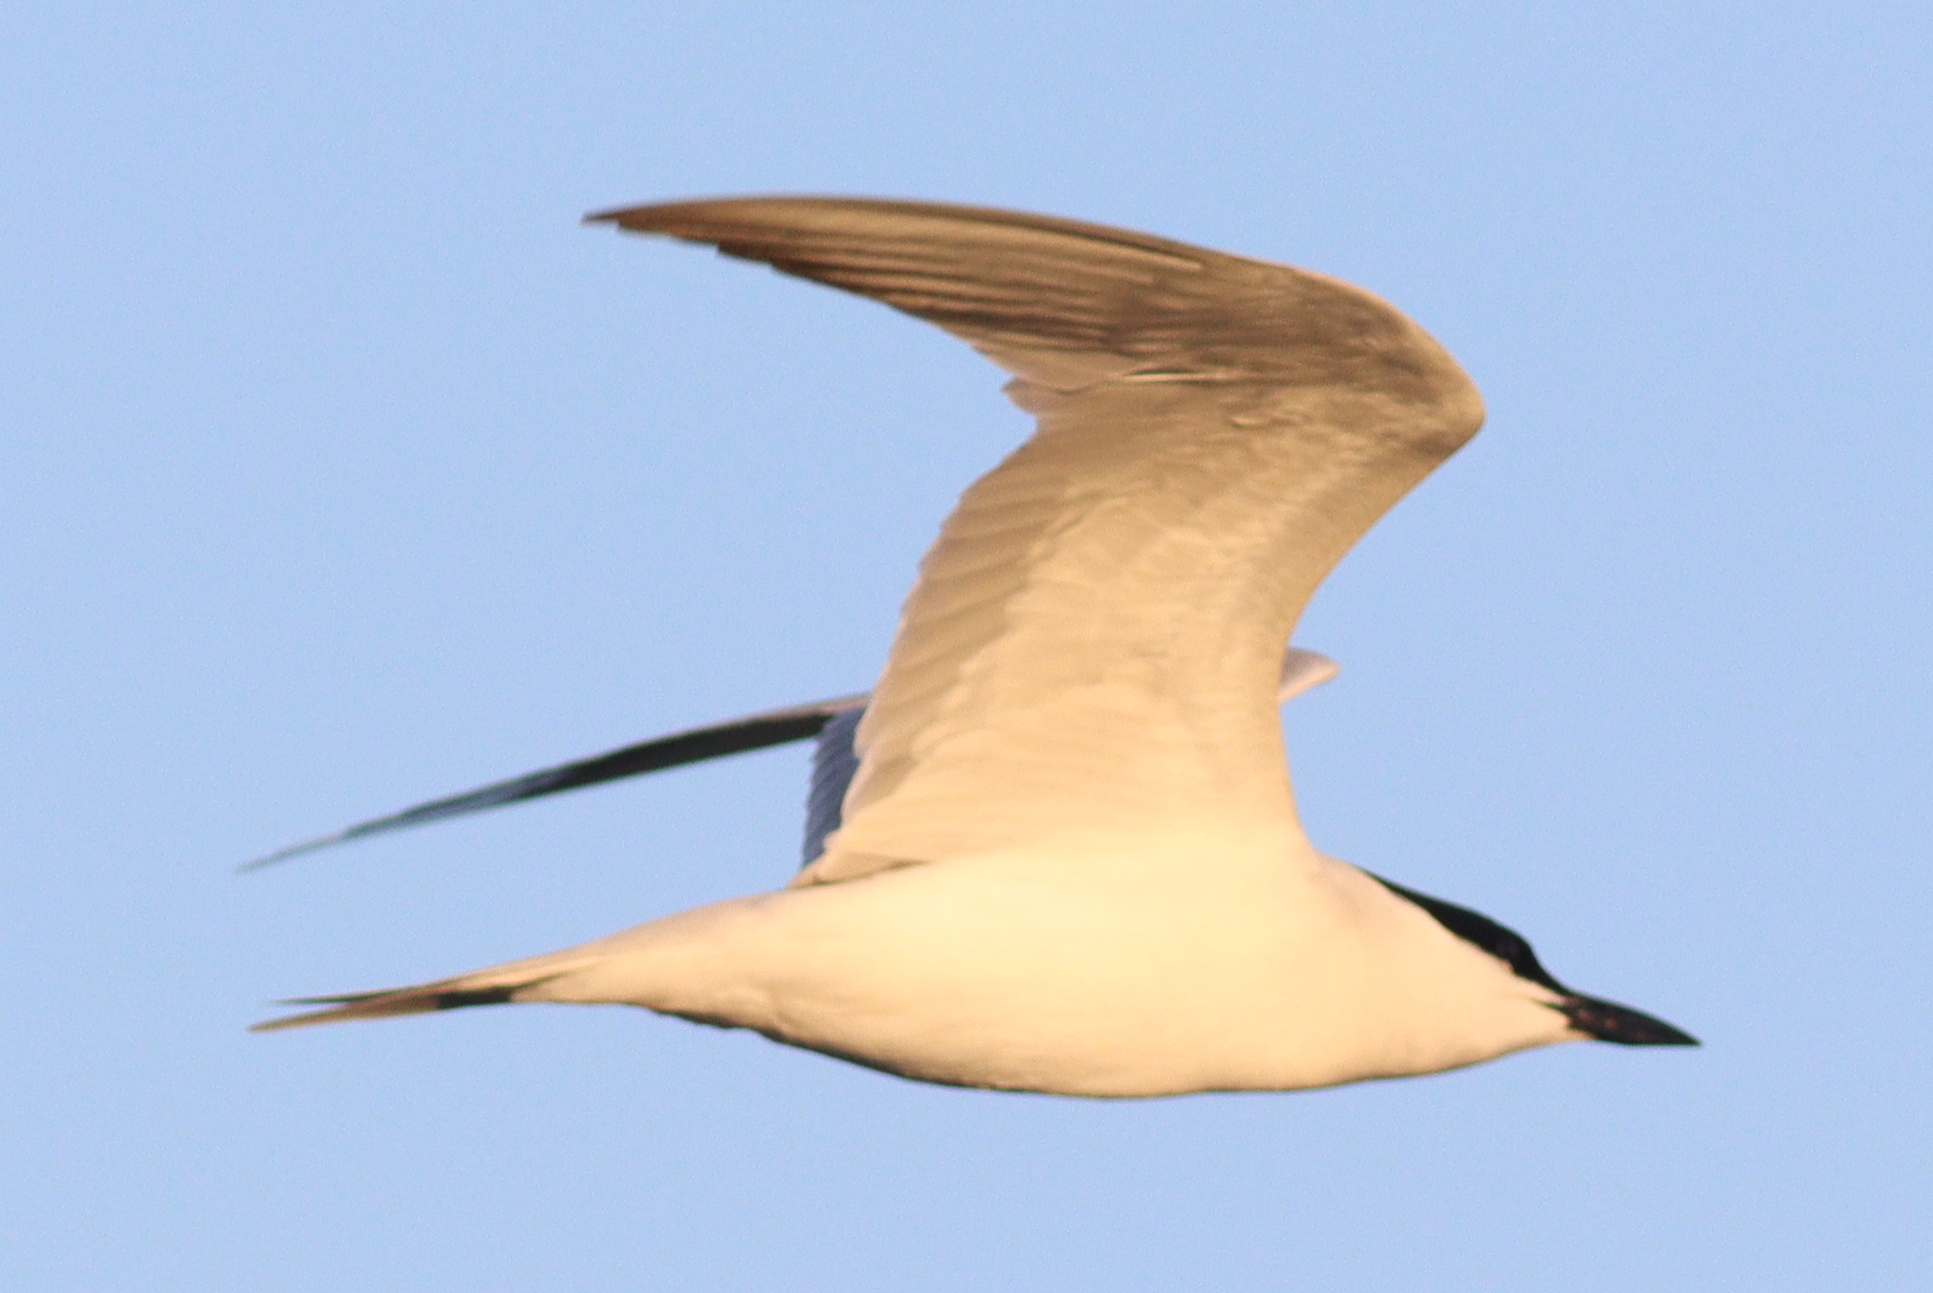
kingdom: Animalia
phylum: Chordata
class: Aves
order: Charadriiformes
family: Laridae
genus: Gelochelidon
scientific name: Gelochelidon nilotica
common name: Gull-billed tern
